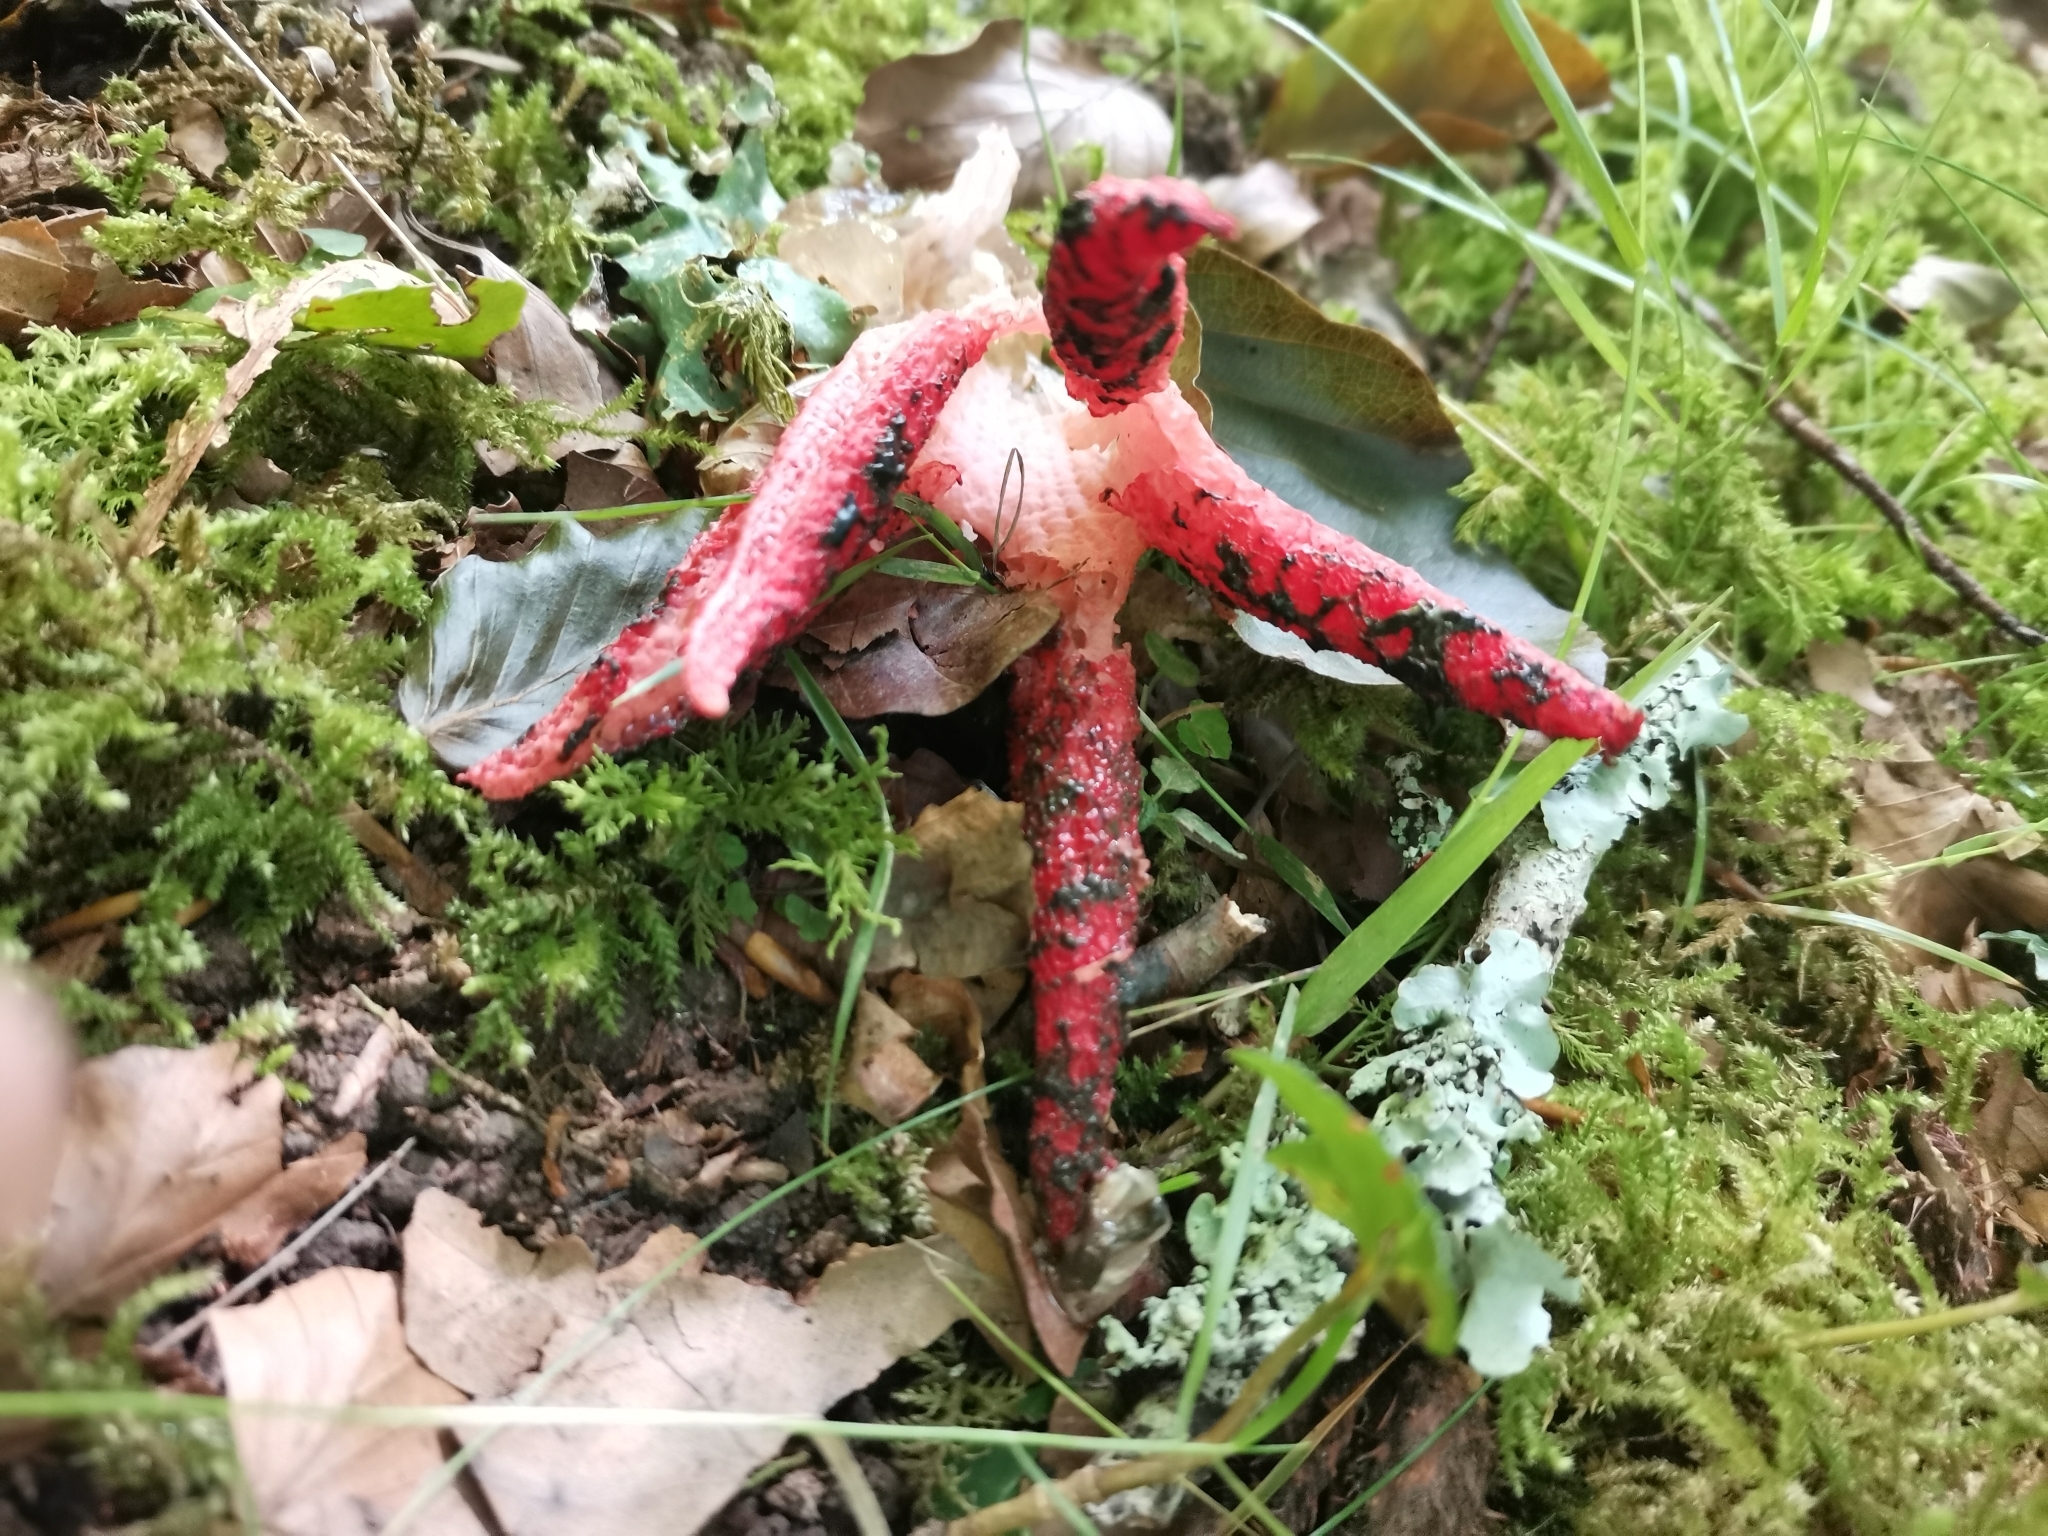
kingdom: Fungi
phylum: Basidiomycota
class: Agaricomycetes
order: Phallales
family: Phallaceae
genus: Clathrus
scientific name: Clathrus archeri
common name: Devil's fingers
